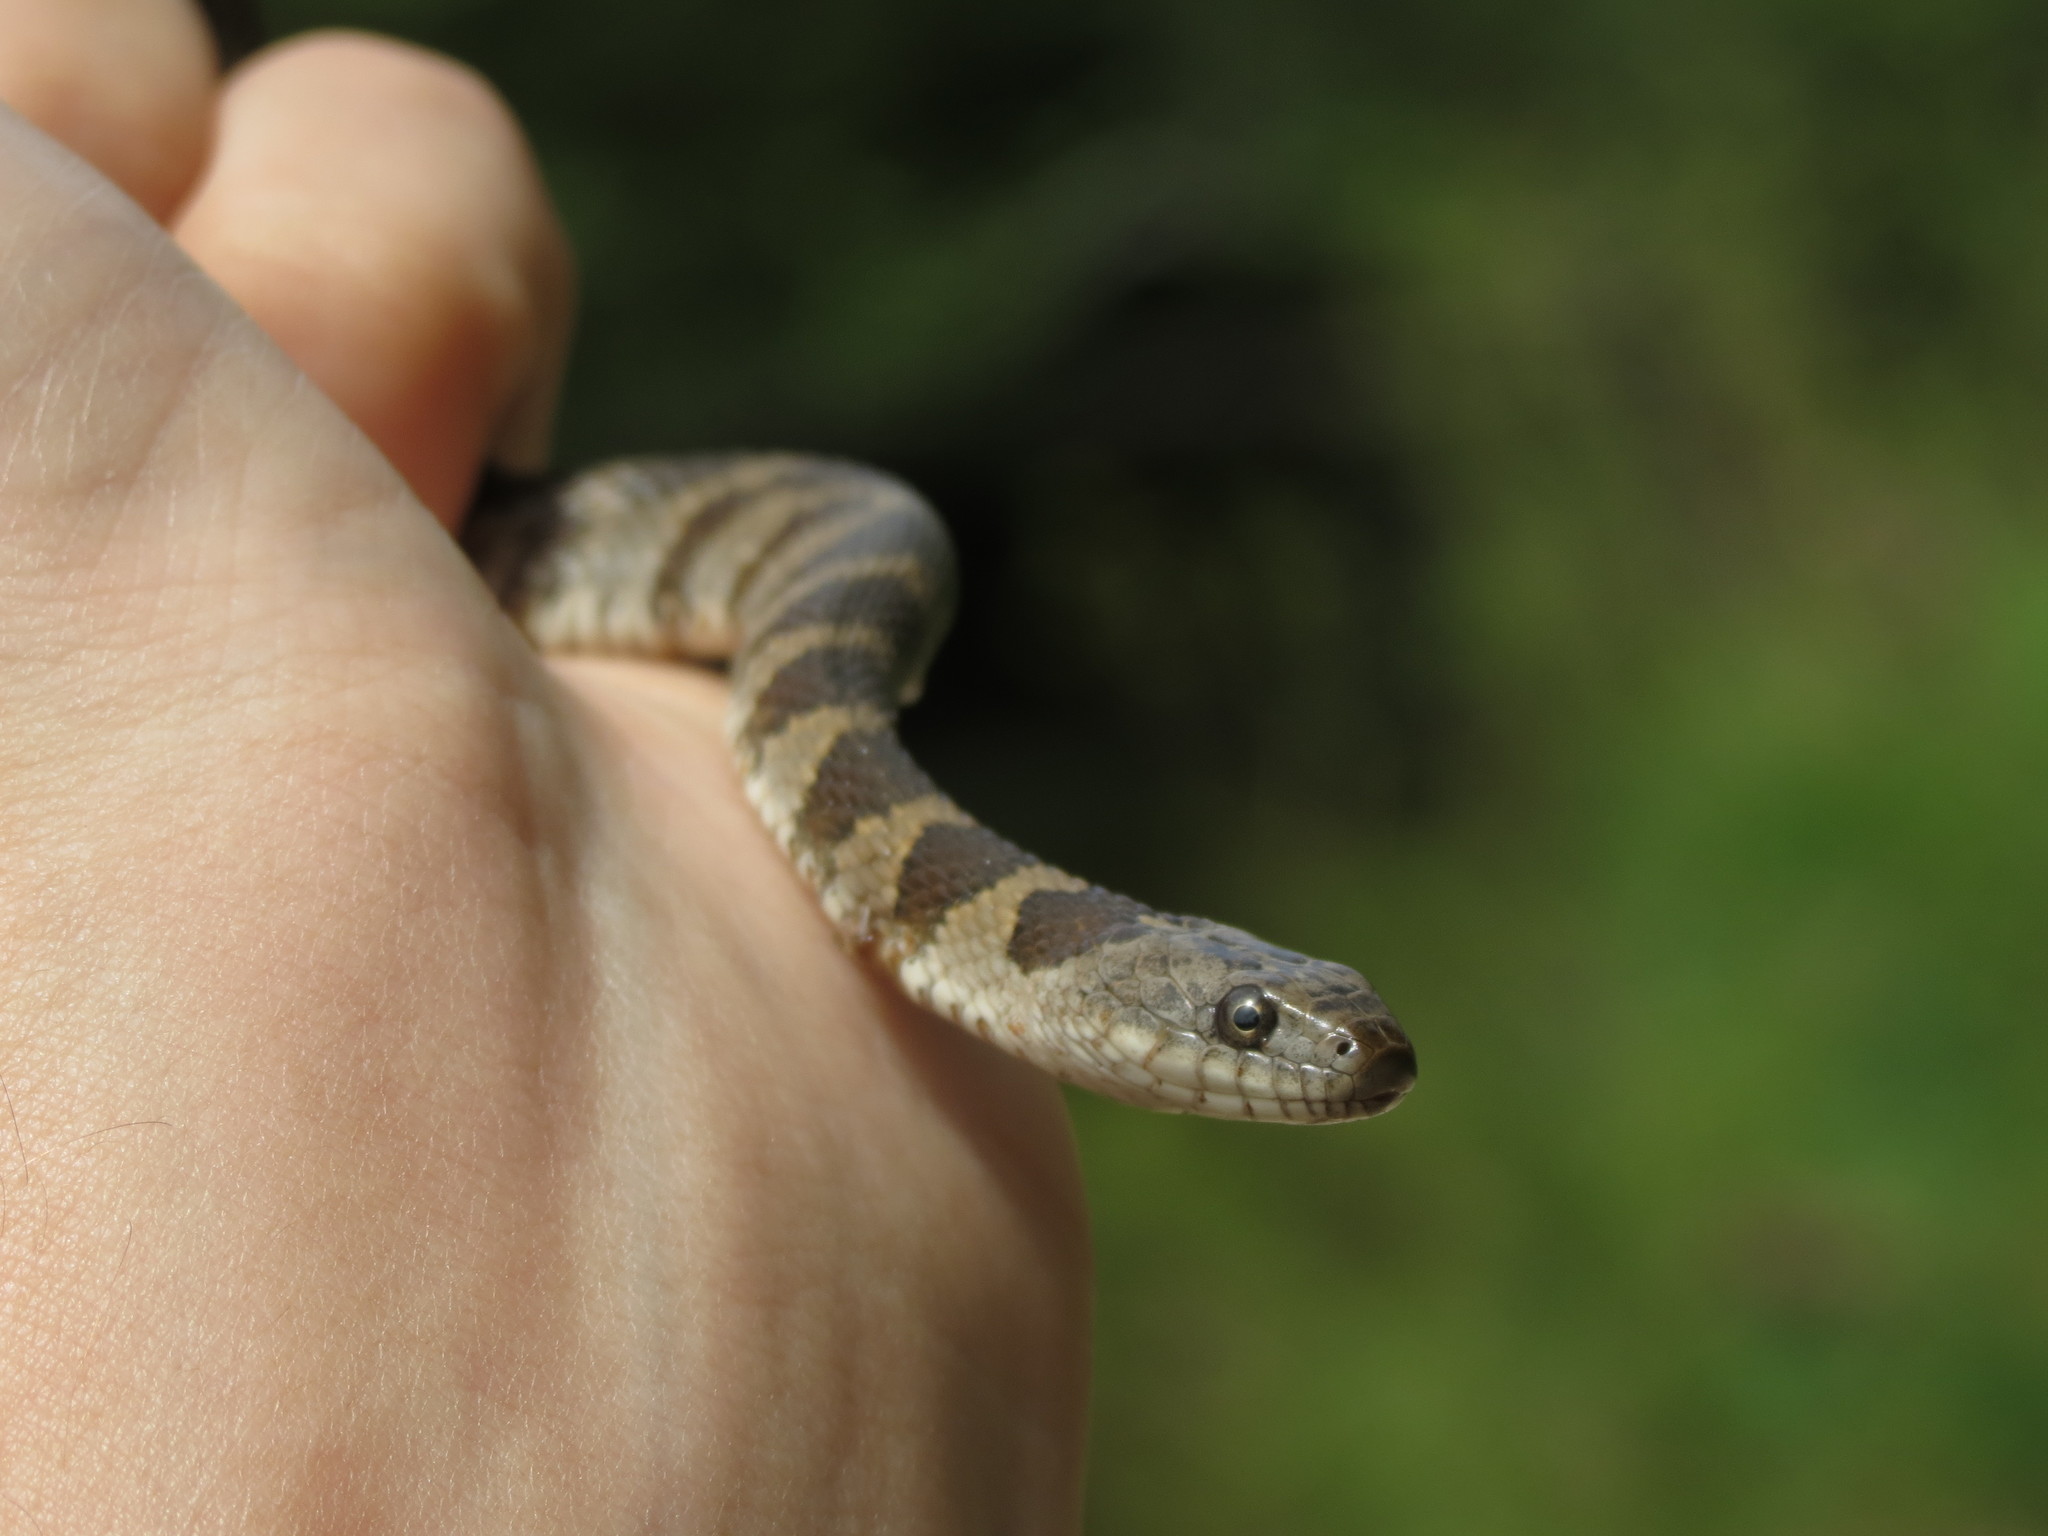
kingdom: Animalia
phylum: Chordata
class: Squamata
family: Colubridae
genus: Nerodia
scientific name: Nerodia sipedon
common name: Northern water snake
